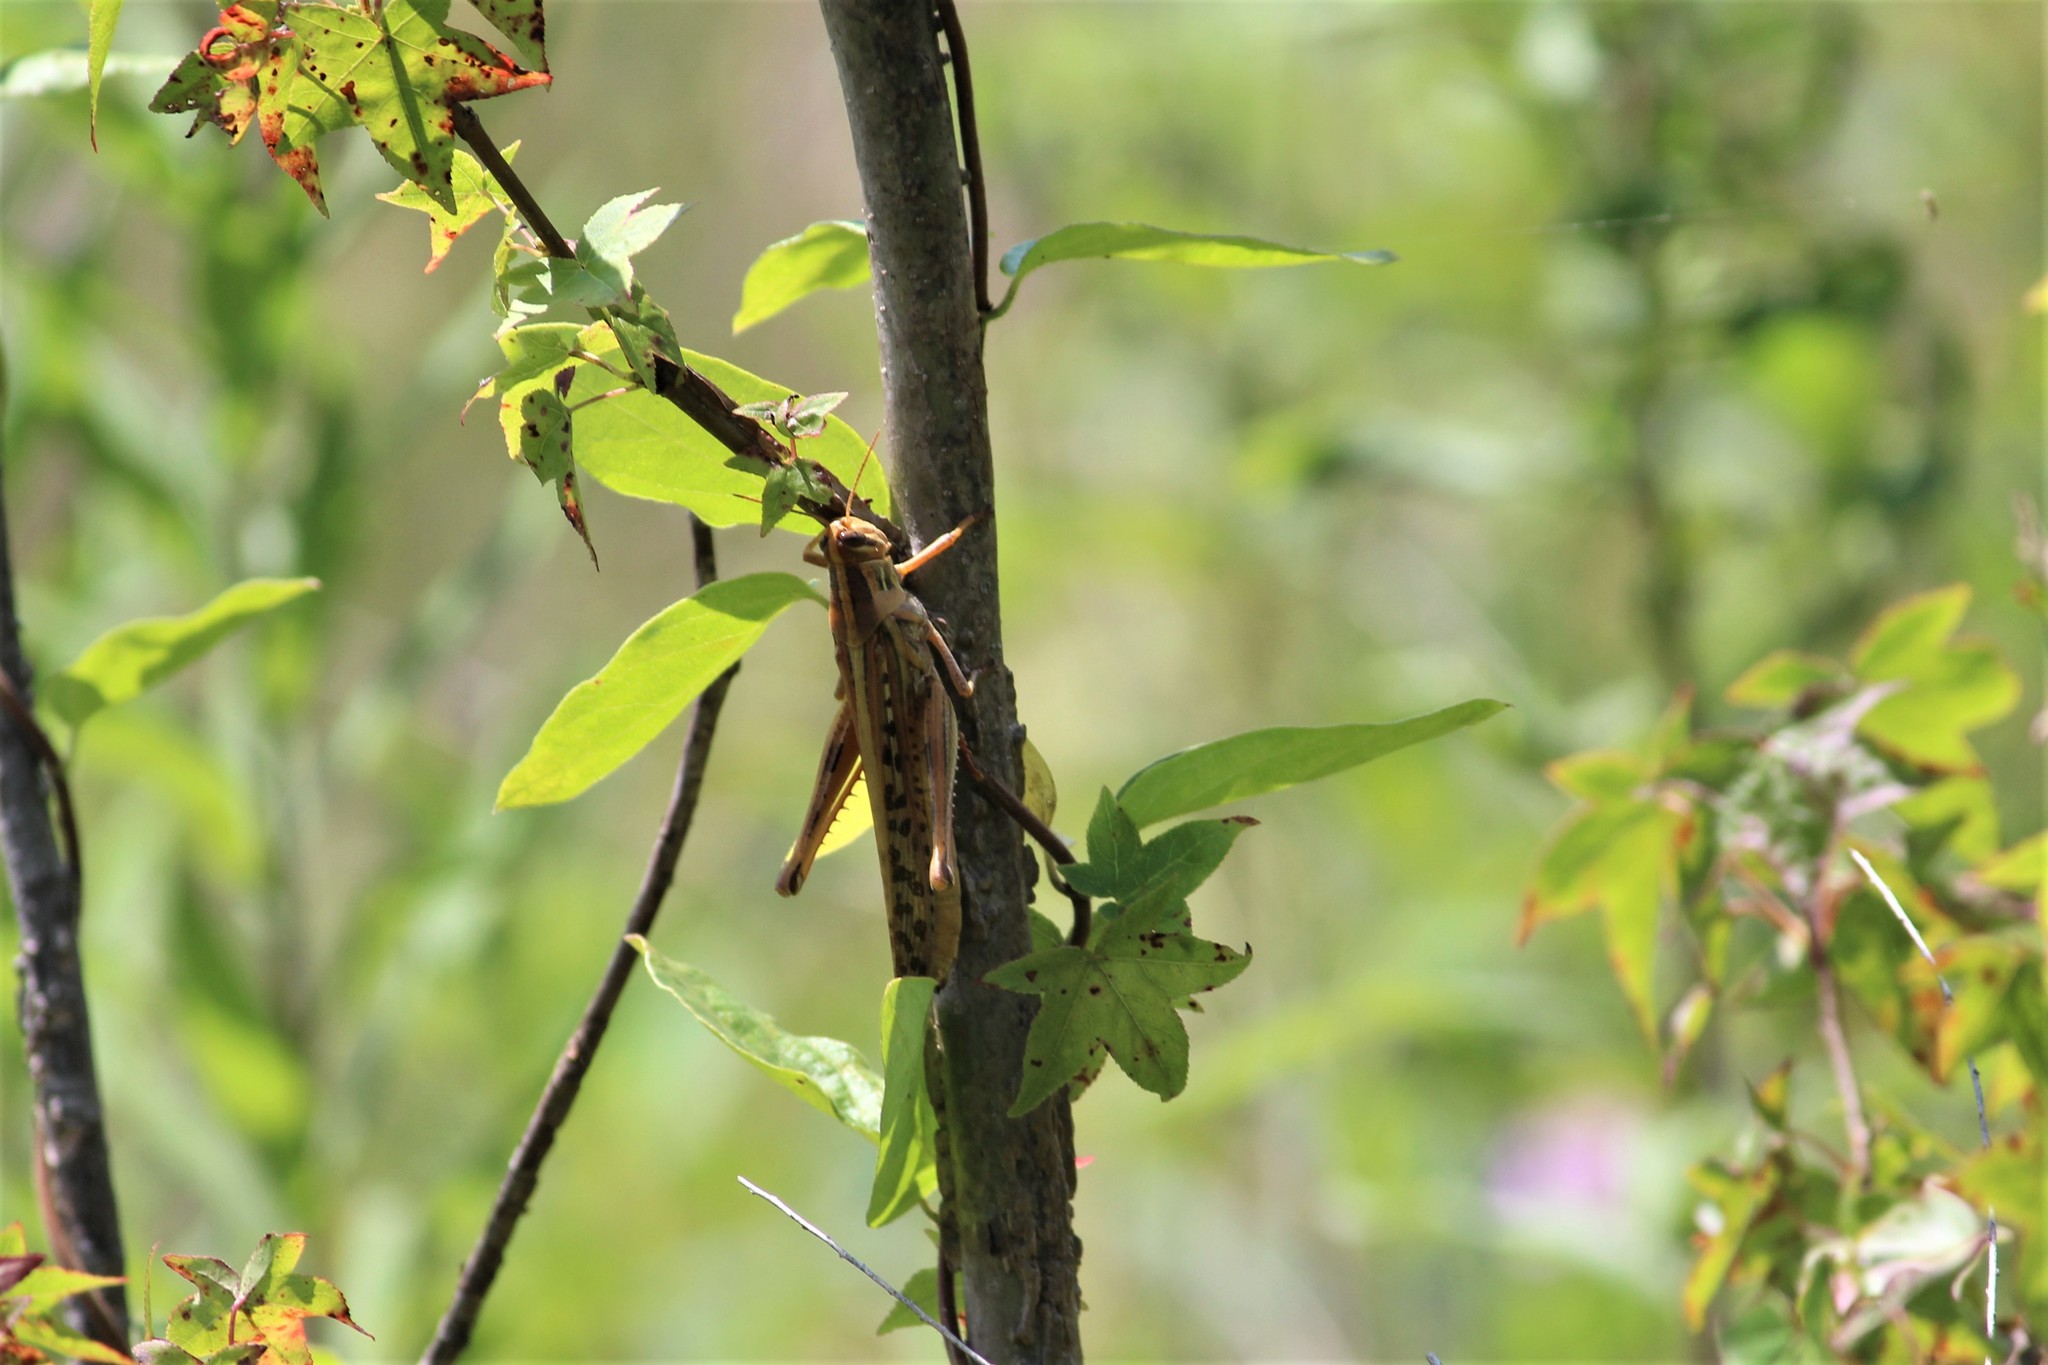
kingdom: Animalia
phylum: Arthropoda
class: Insecta
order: Orthoptera
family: Acrididae
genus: Schistocerca
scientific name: Schistocerca americana
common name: American bird locust
